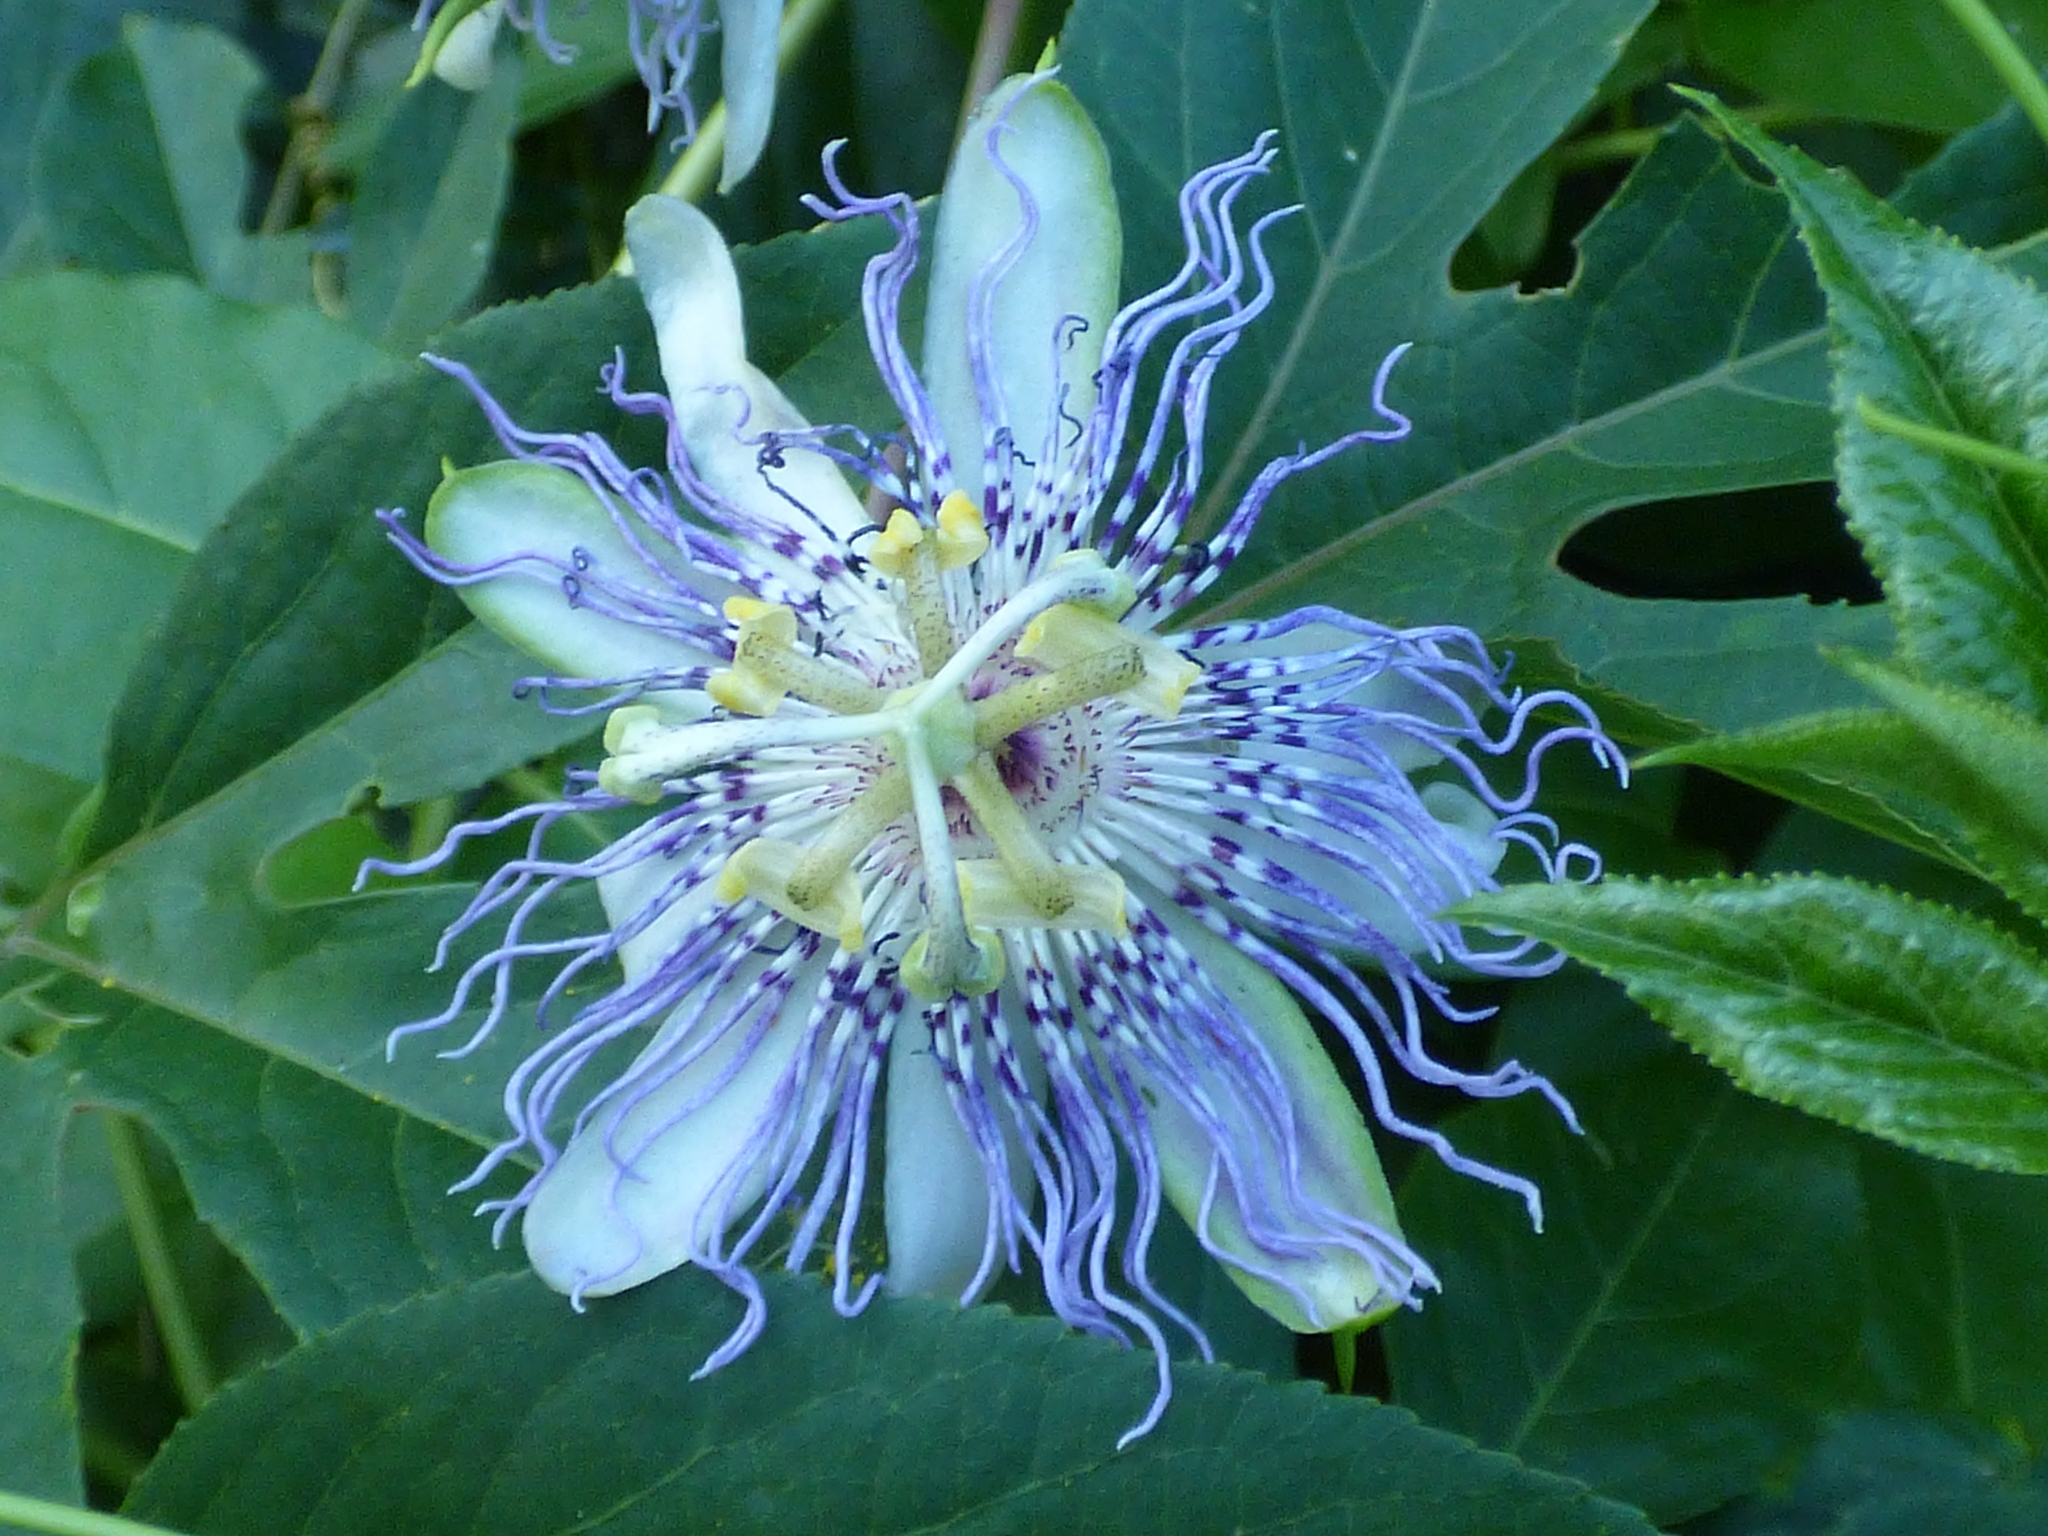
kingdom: Plantae
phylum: Tracheophyta
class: Magnoliopsida
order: Malpighiales
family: Passifloraceae
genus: Passiflora
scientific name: Passiflora incarnata
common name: Apricot-vine
